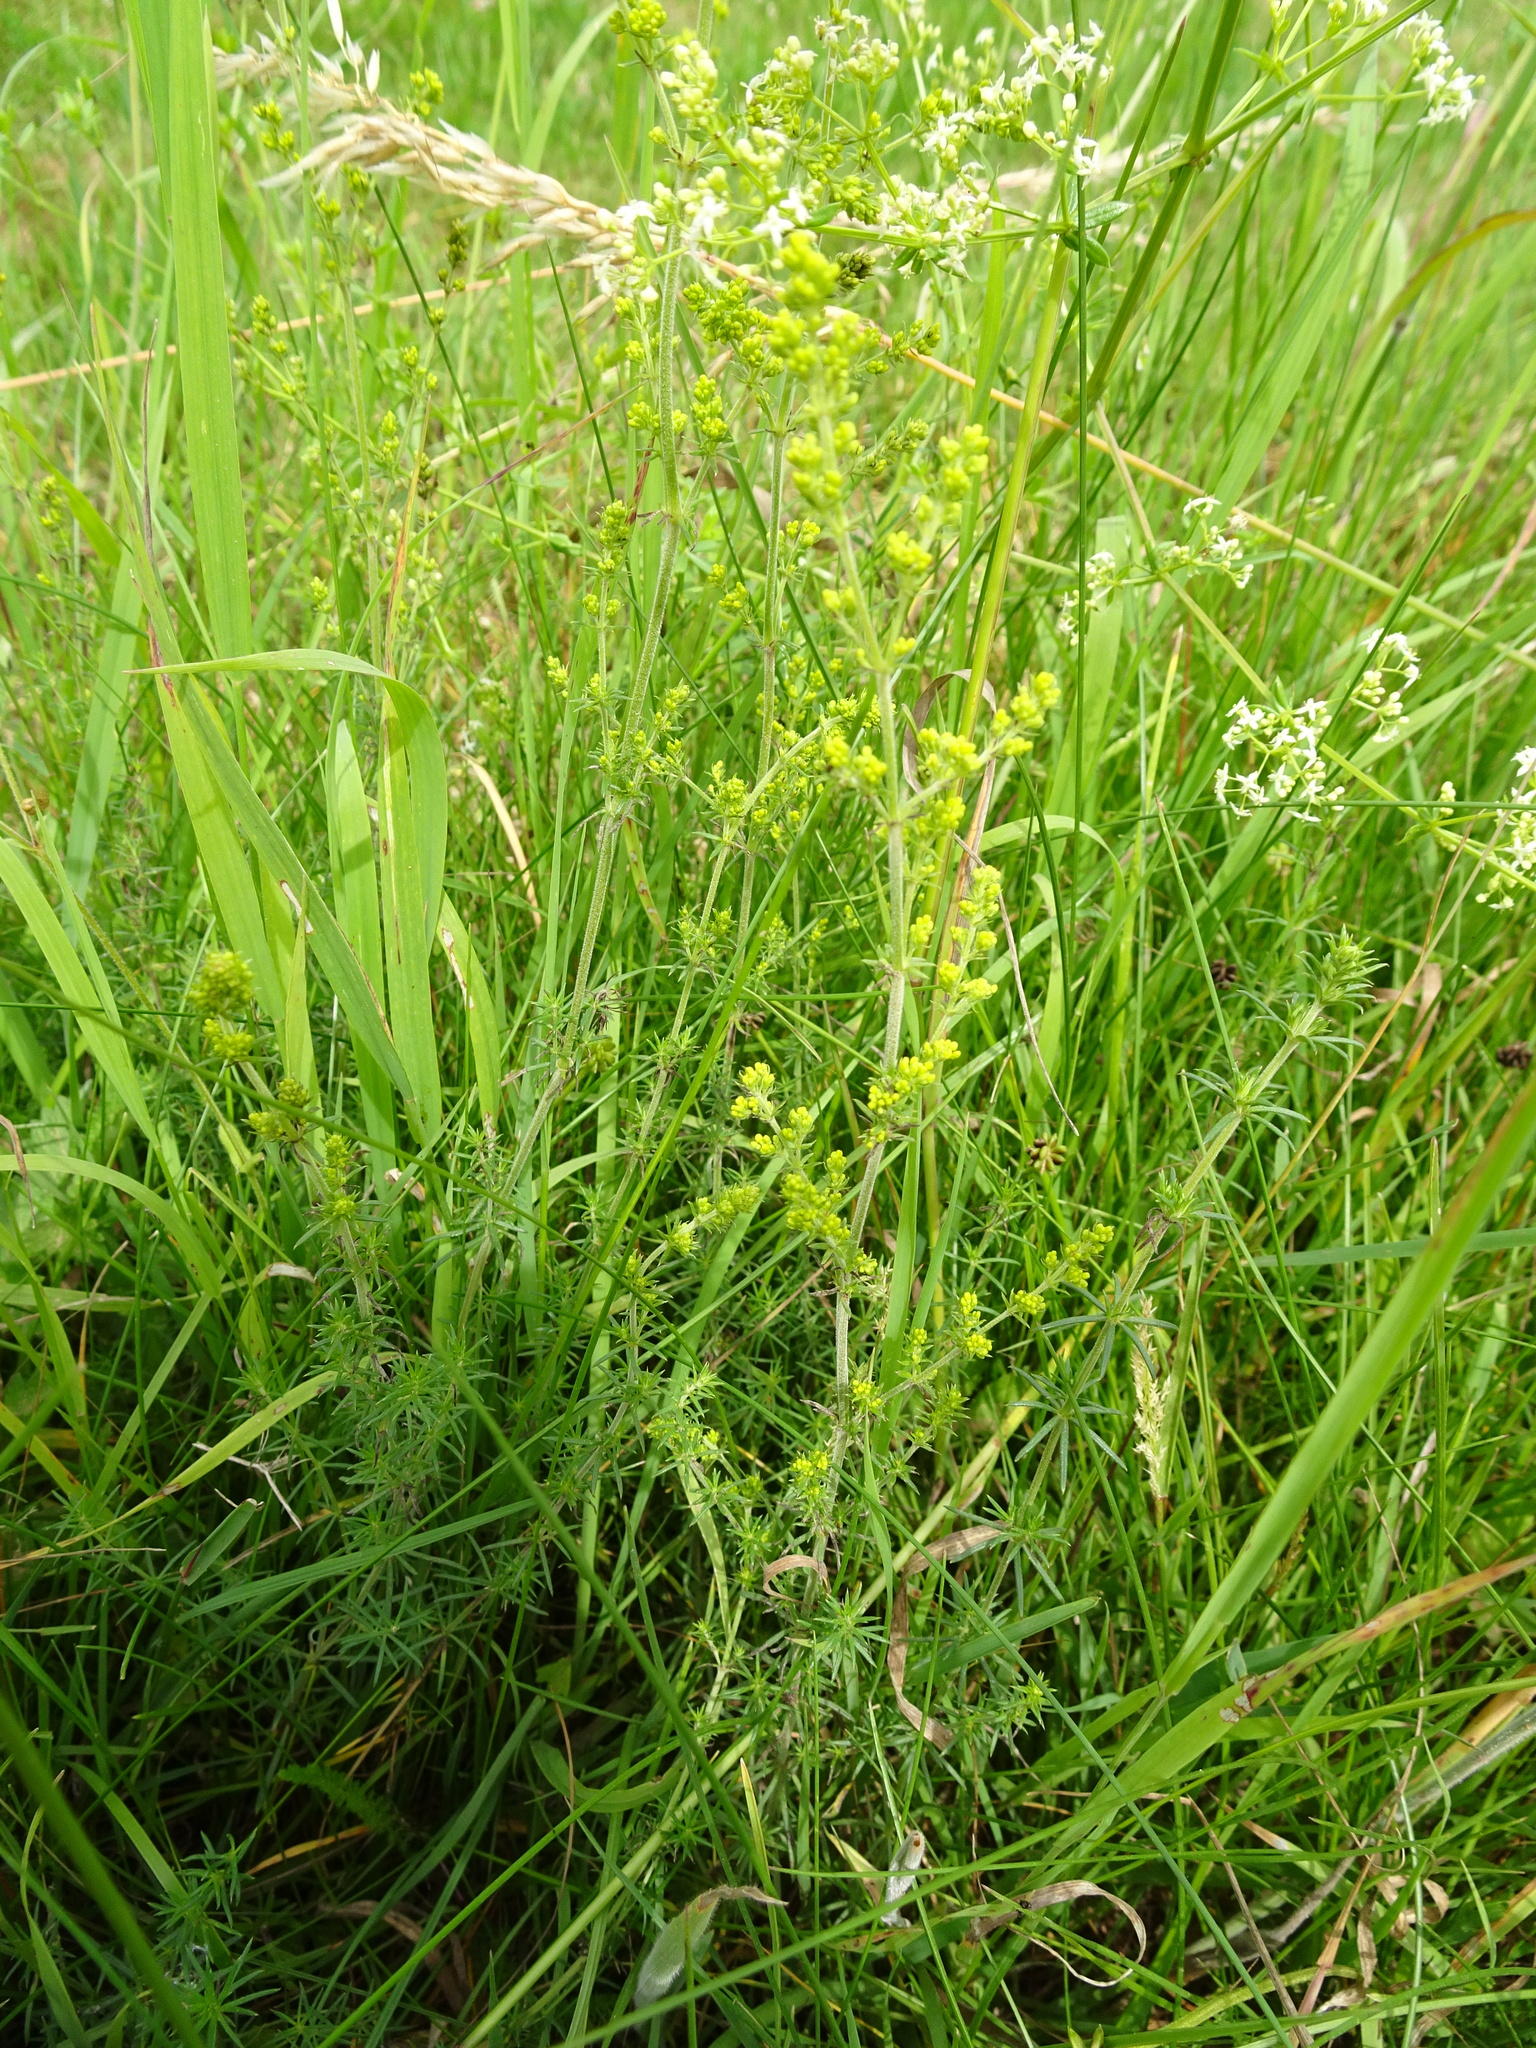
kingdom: Plantae
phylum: Tracheophyta
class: Magnoliopsida
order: Gentianales
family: Rubiaceae
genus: Galium
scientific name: Galium verum
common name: Lady's bedstraw
